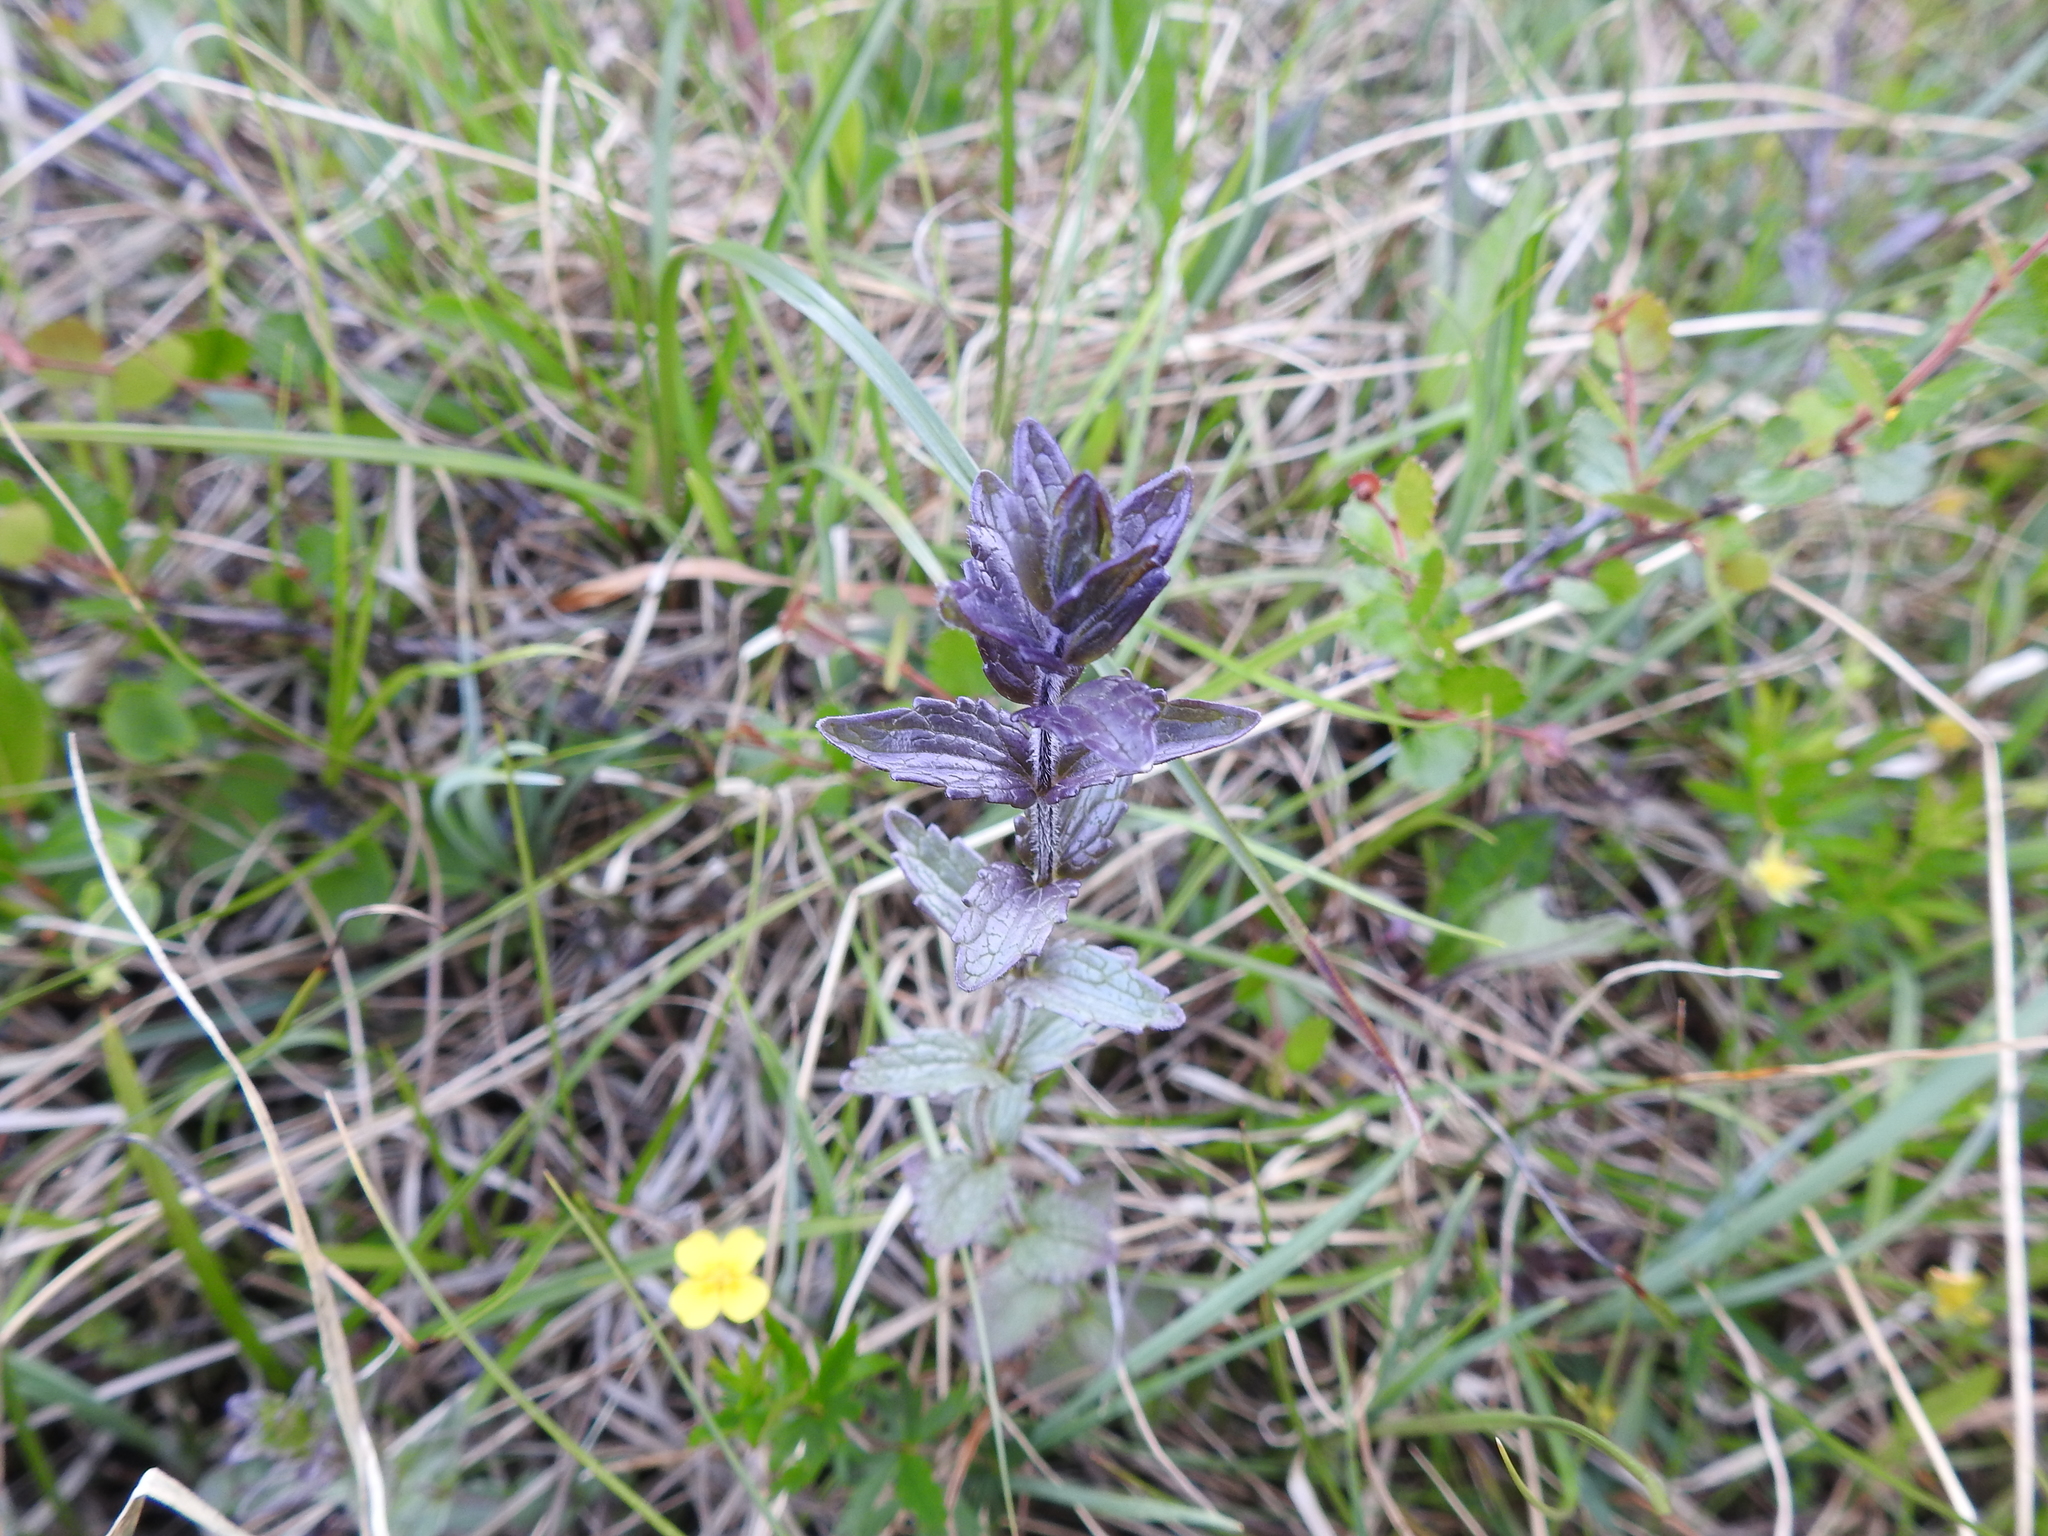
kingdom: Plantae
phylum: Tracheophyta
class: Magnoliopsida
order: Lamiales
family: Orobanchaceae
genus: Bartsia
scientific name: Bartsia alpina
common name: Alpine bartsia
